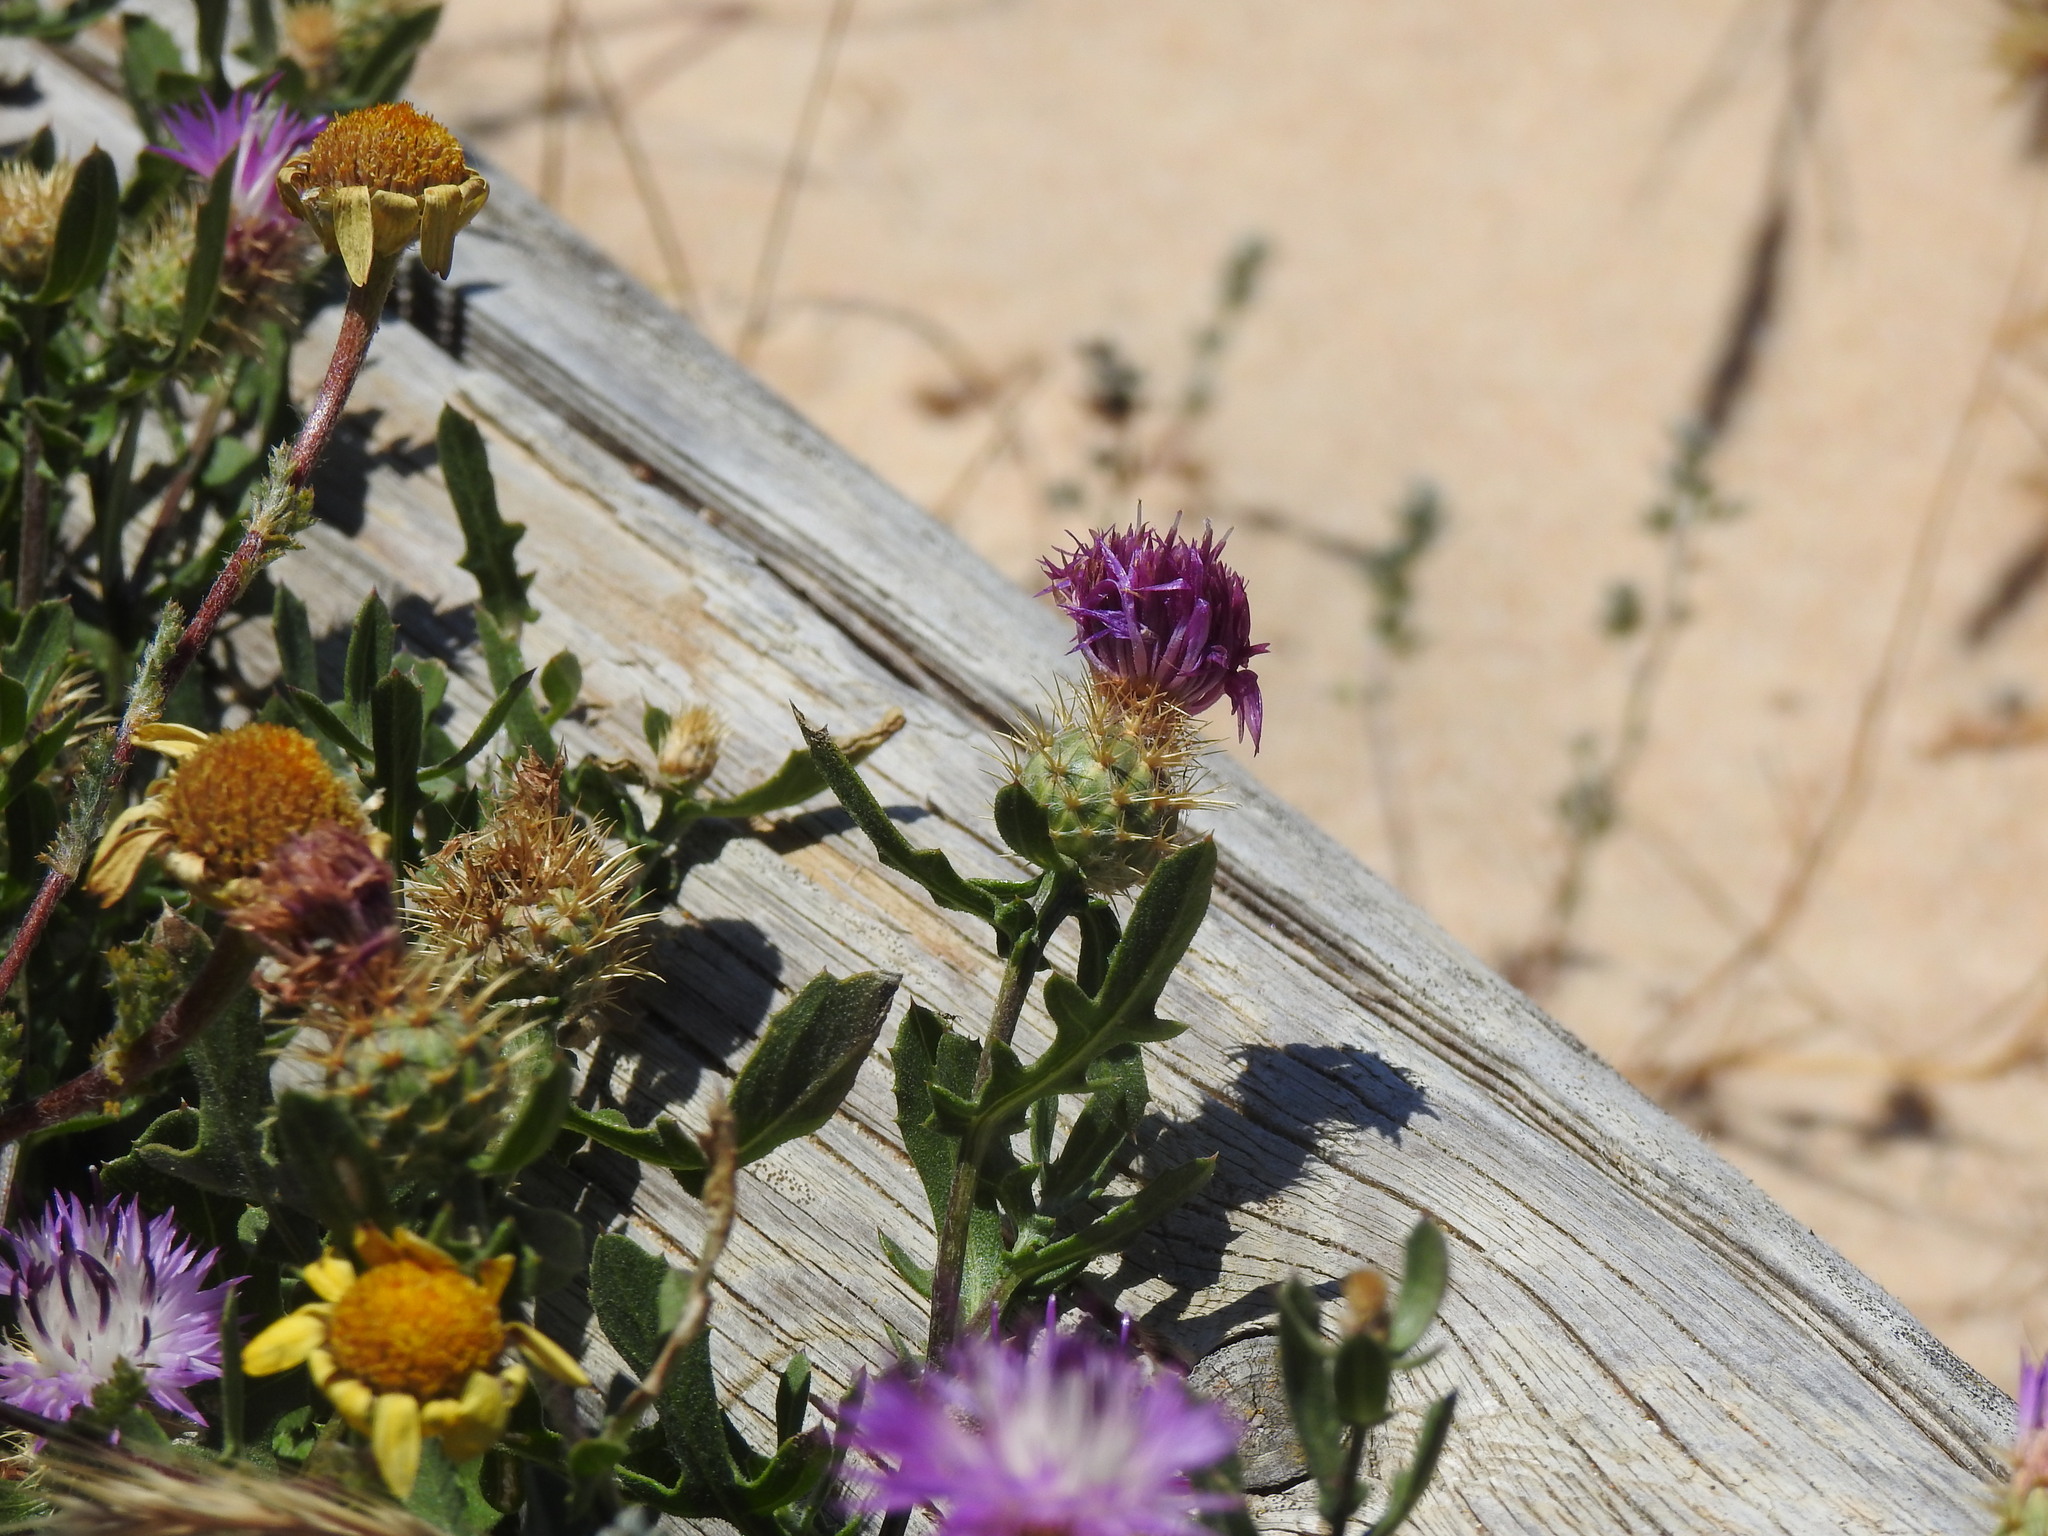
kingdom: Plantae
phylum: Tracheophyta
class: Magnoliopsida
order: Asterales
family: Asteraceae
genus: Centaurea
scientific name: Centaurea susannae
